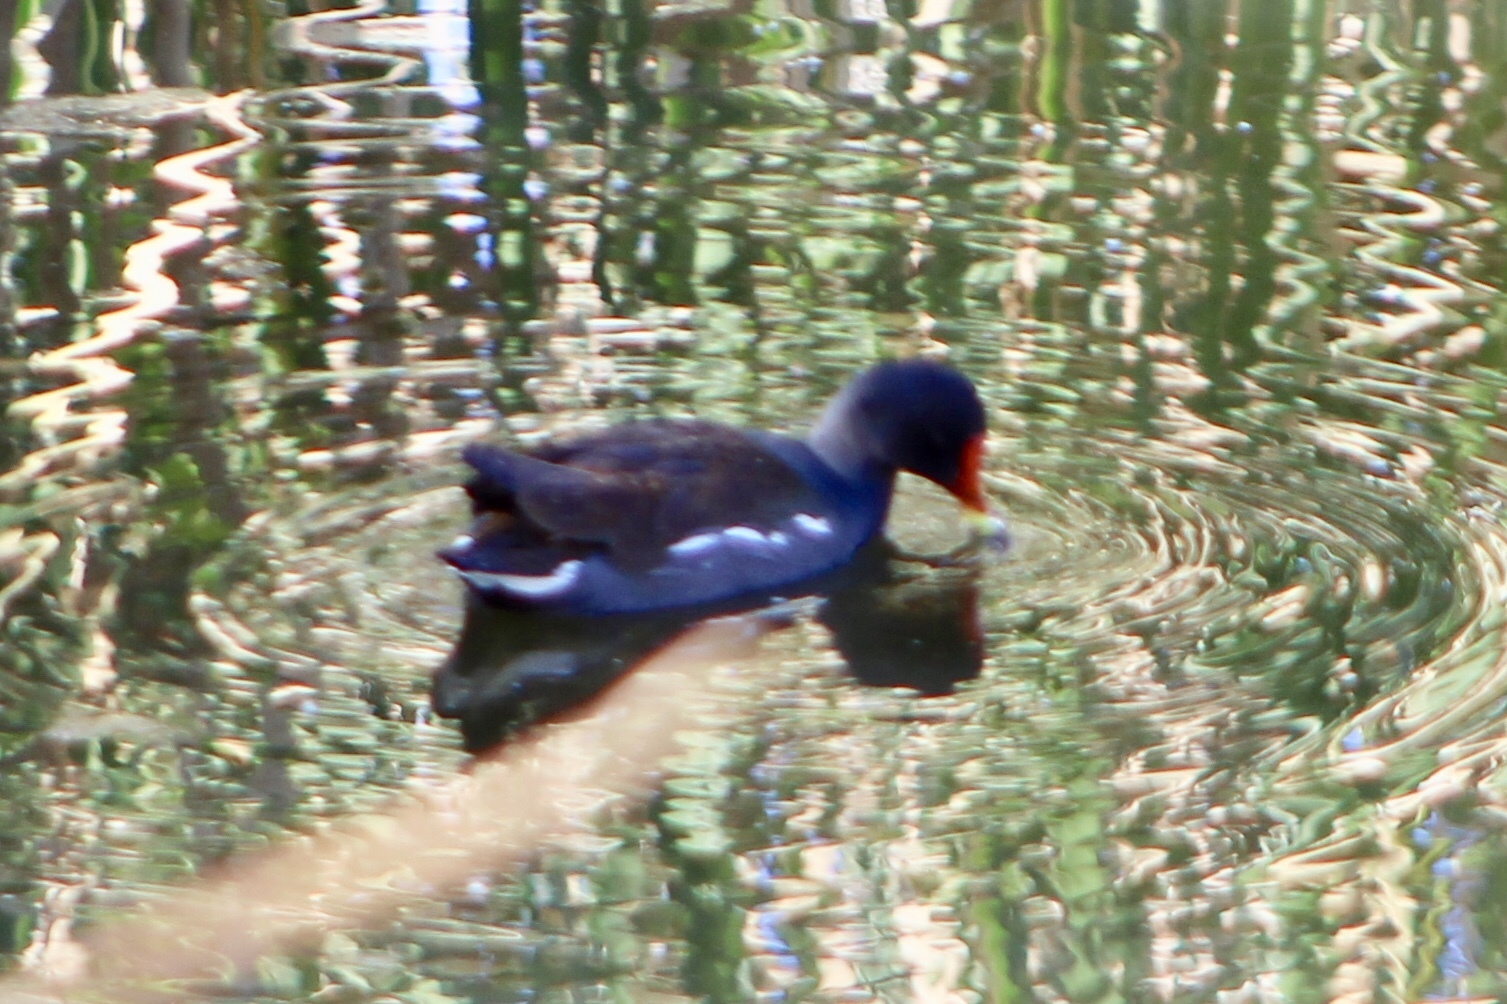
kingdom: Animalia
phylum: Chordata
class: Aves
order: Gruiformes
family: Rallidae
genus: Gallinula
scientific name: Gallinula chloropus
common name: Common moorhen
